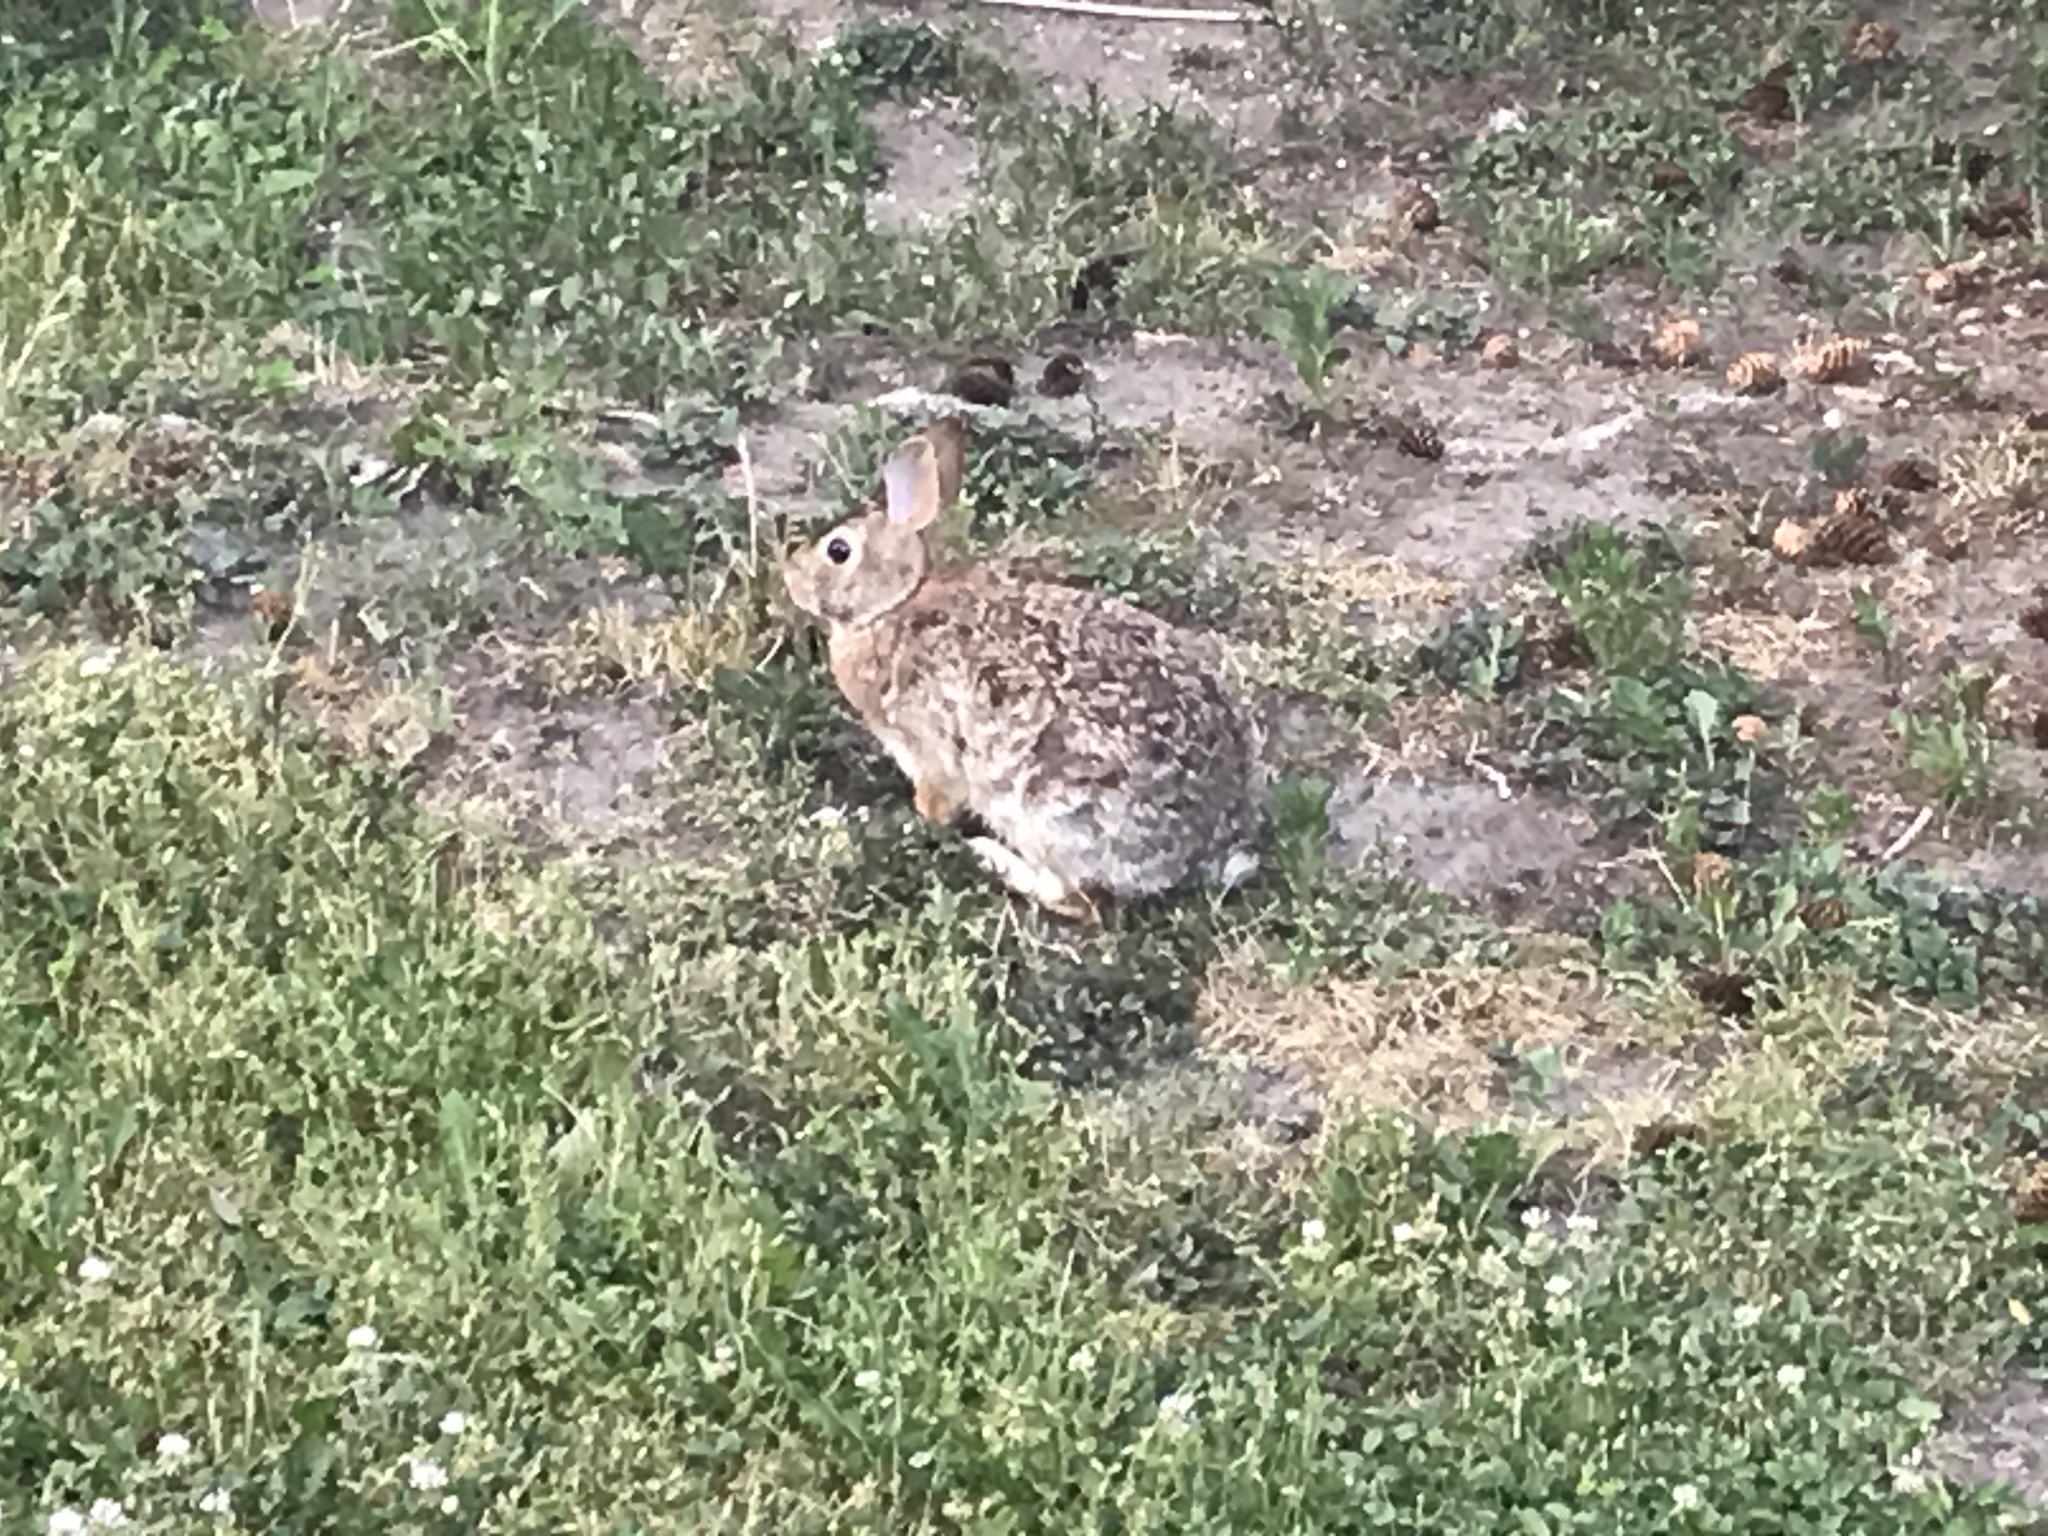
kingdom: Animalia
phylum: Chordata
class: Mammalia
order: Lagomorpha
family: Leporidae
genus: Sylvilagus
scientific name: Sylvilagus floridanus
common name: Eastern cottontail
